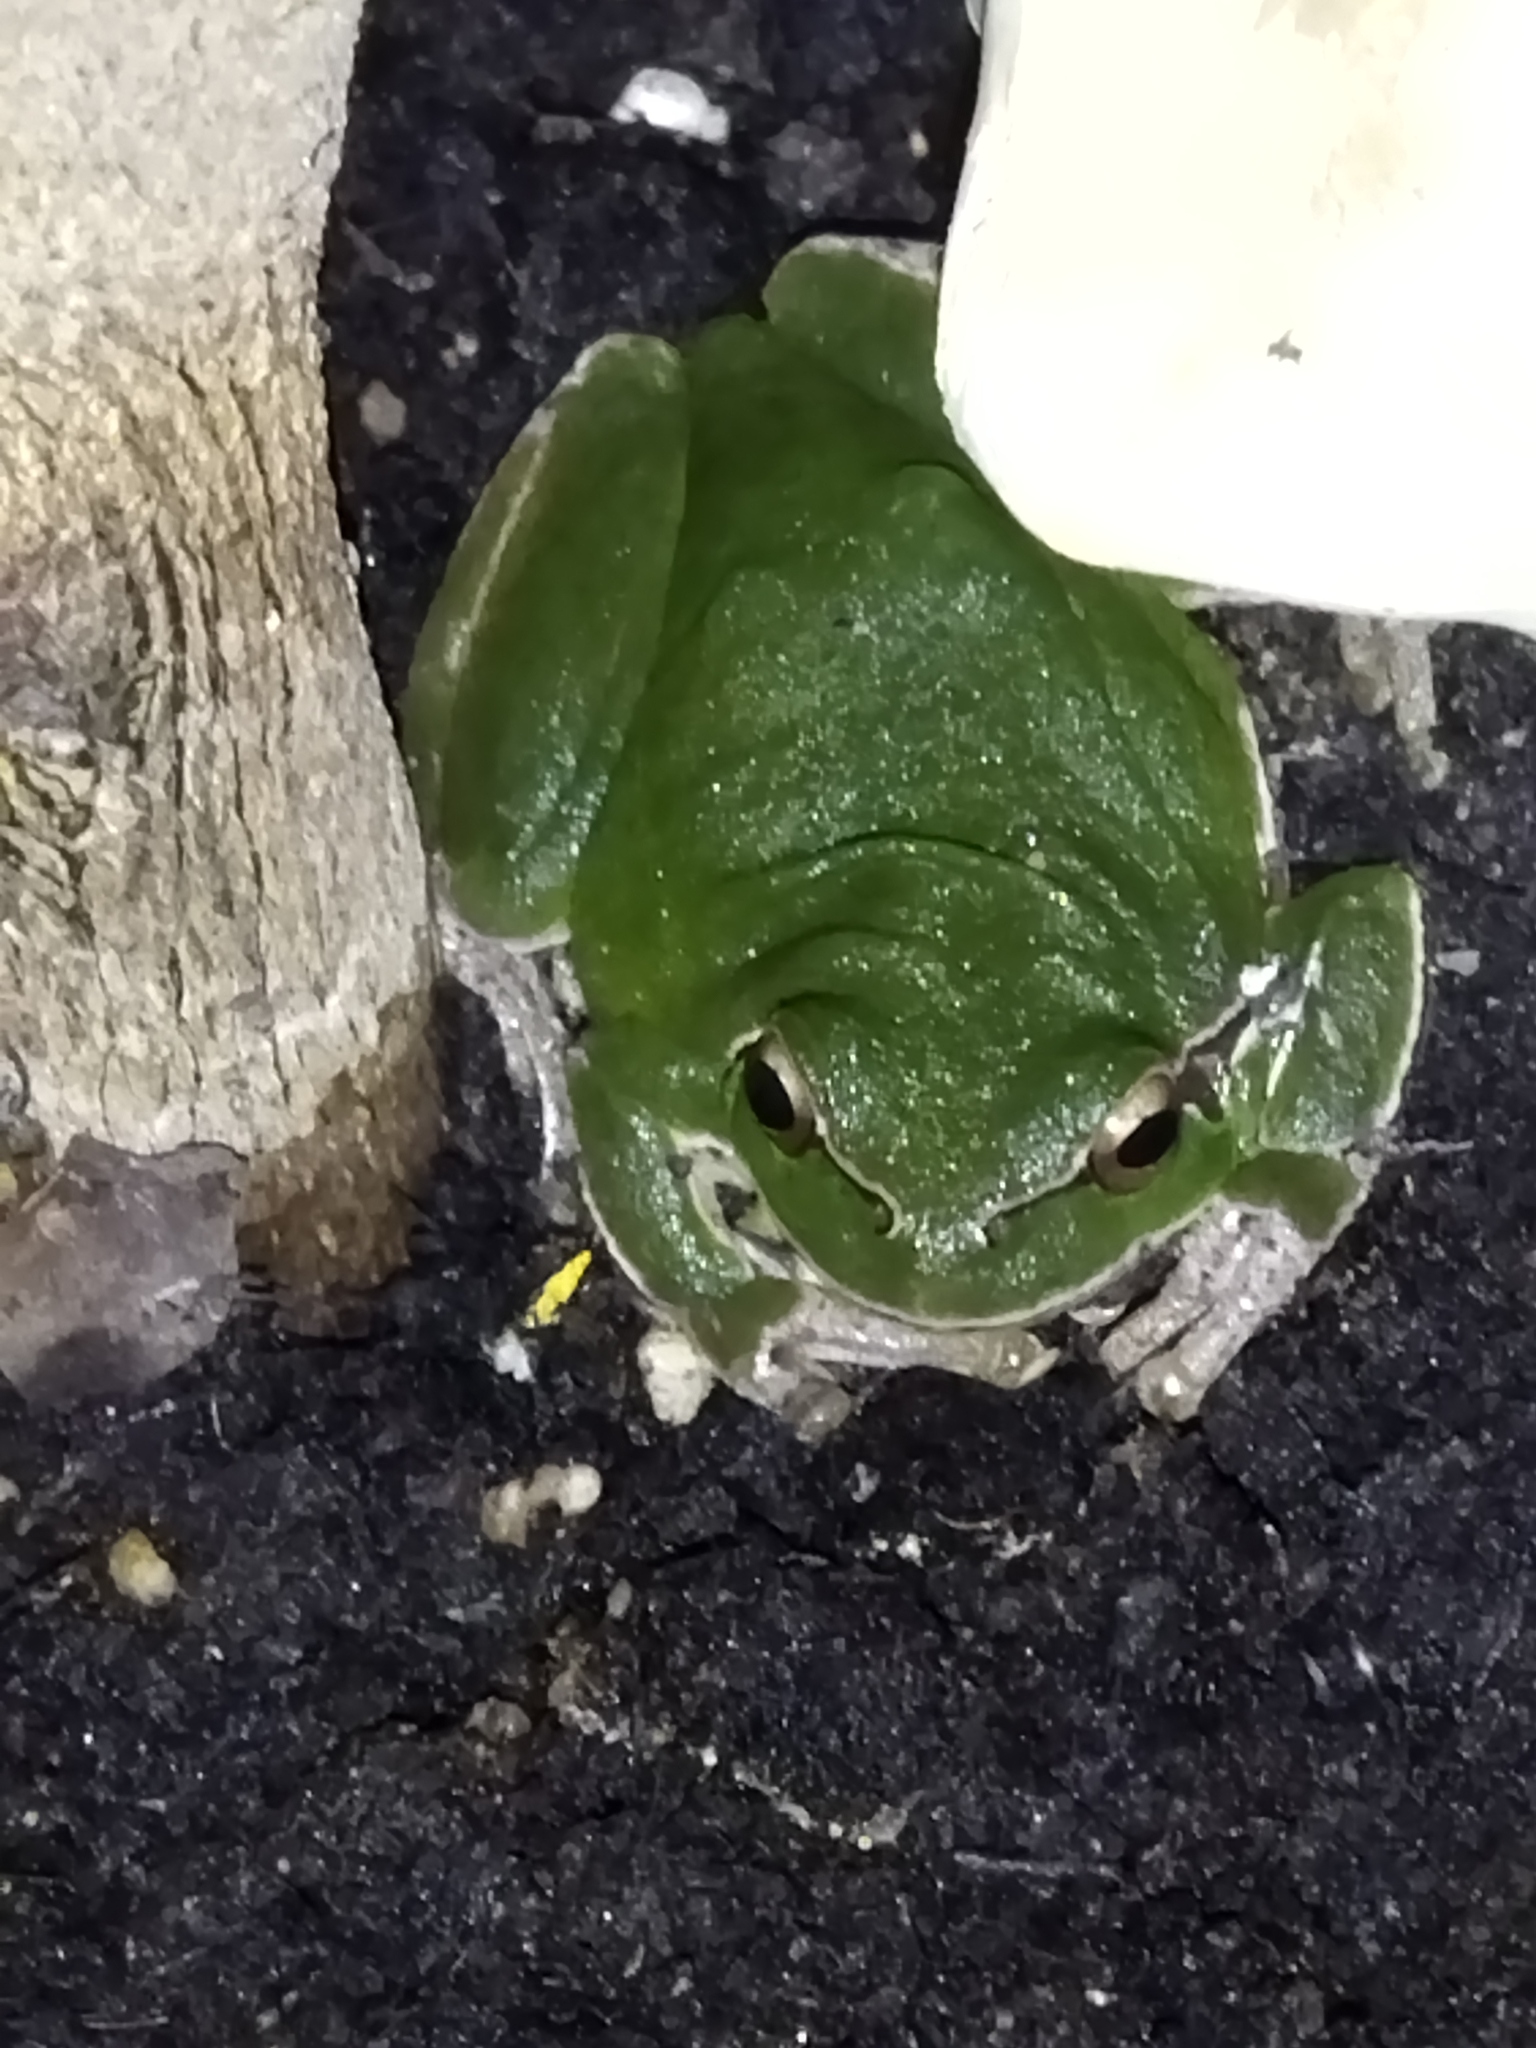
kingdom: Animalia
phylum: Chordata
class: Amphibia
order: Anura
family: Hylidae
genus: Hyla
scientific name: Hyla orientalis
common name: Caucasian treefrog
